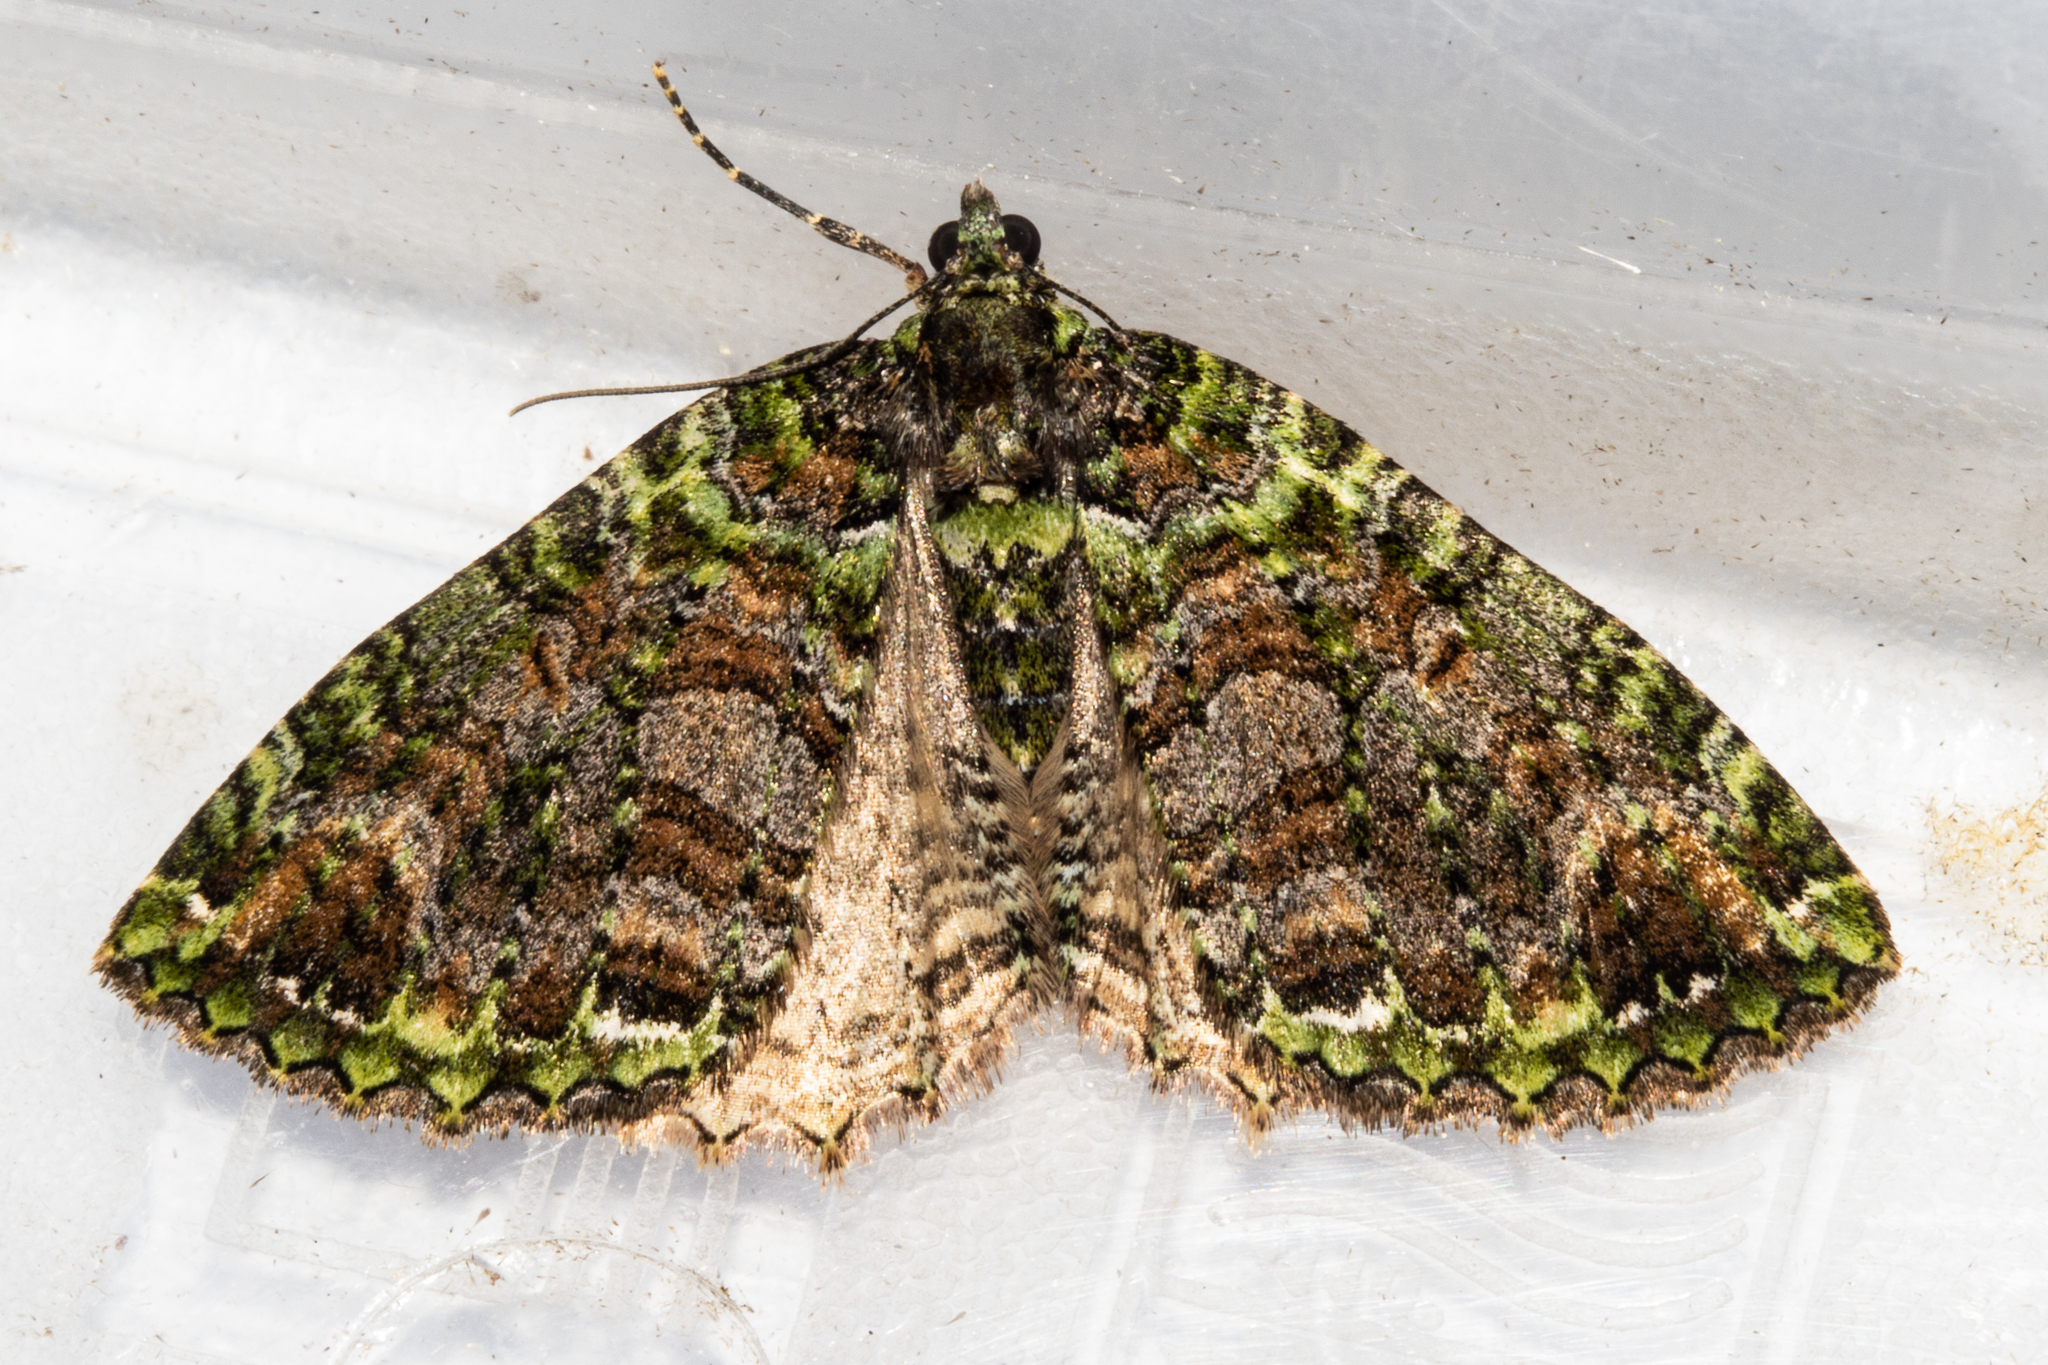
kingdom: Animalia
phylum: Arthropoda
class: Insecta
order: Lepidoptera
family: Geometridae
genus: Austrocidaria
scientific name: Austrocidaria similata
